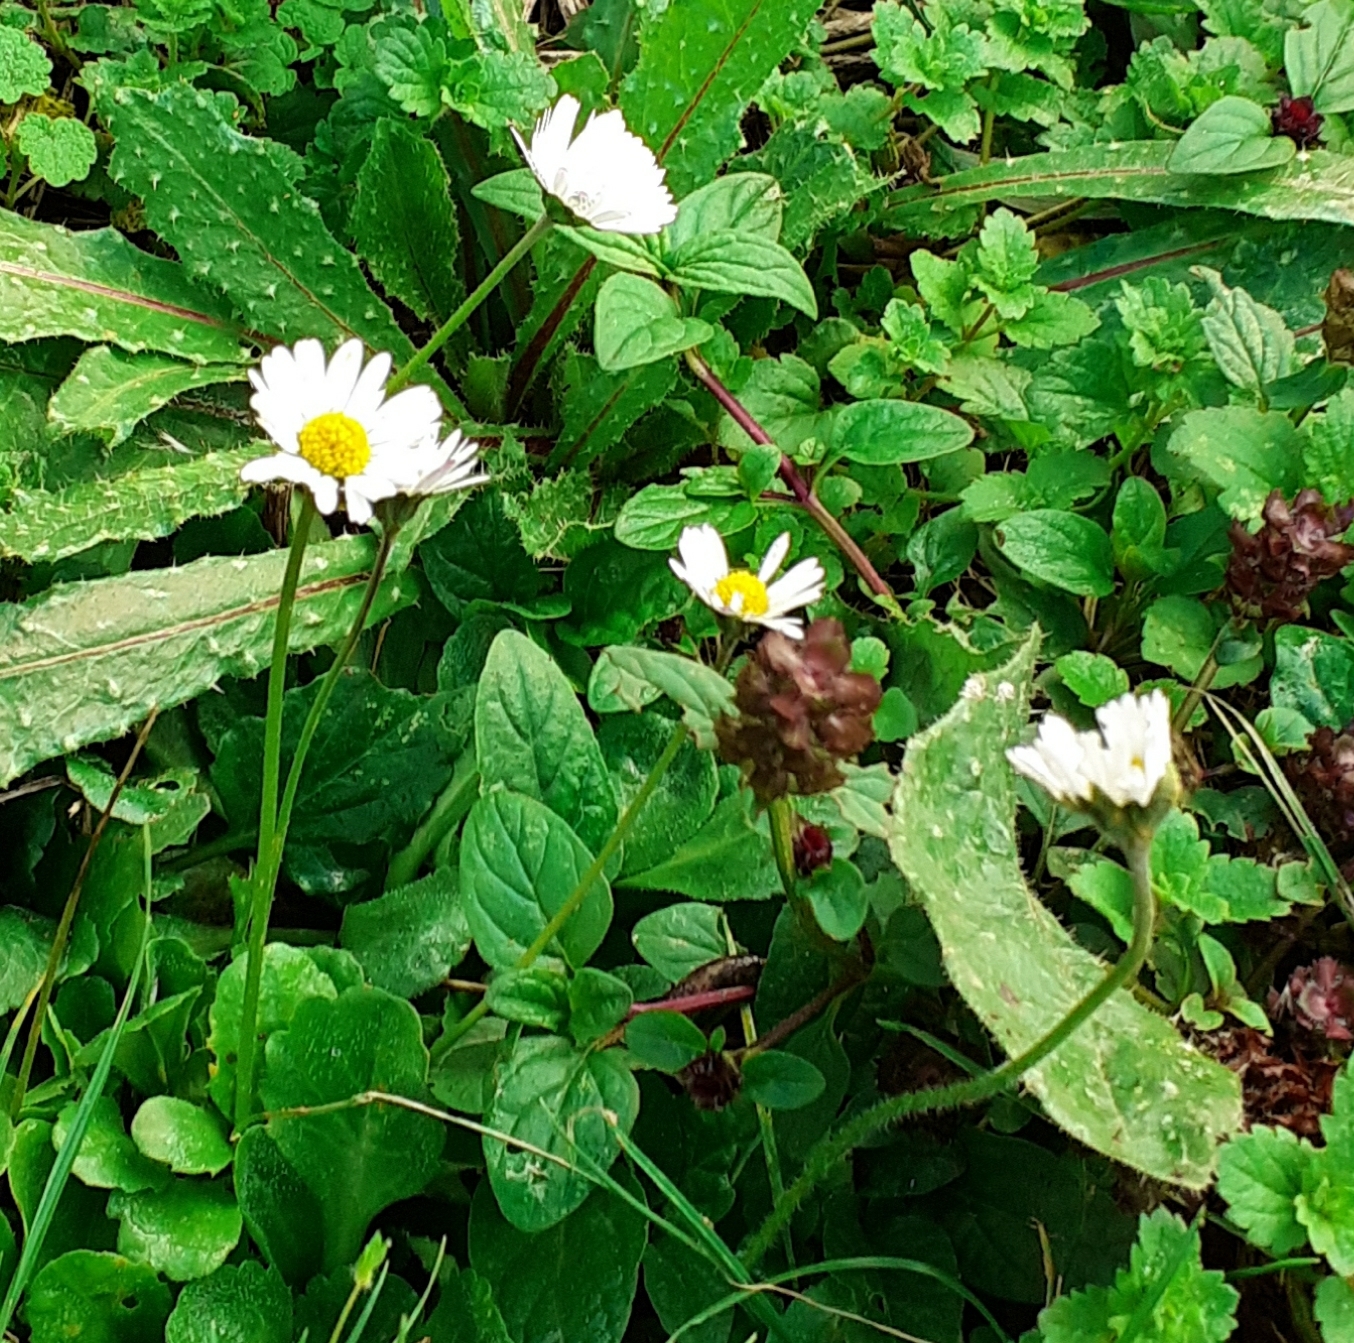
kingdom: Plantae
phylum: Tracheophyta
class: Magnoliopsida
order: Asterales
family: Asteraceae
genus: Bellis
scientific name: Bellis perennis
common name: Lawndaisy
